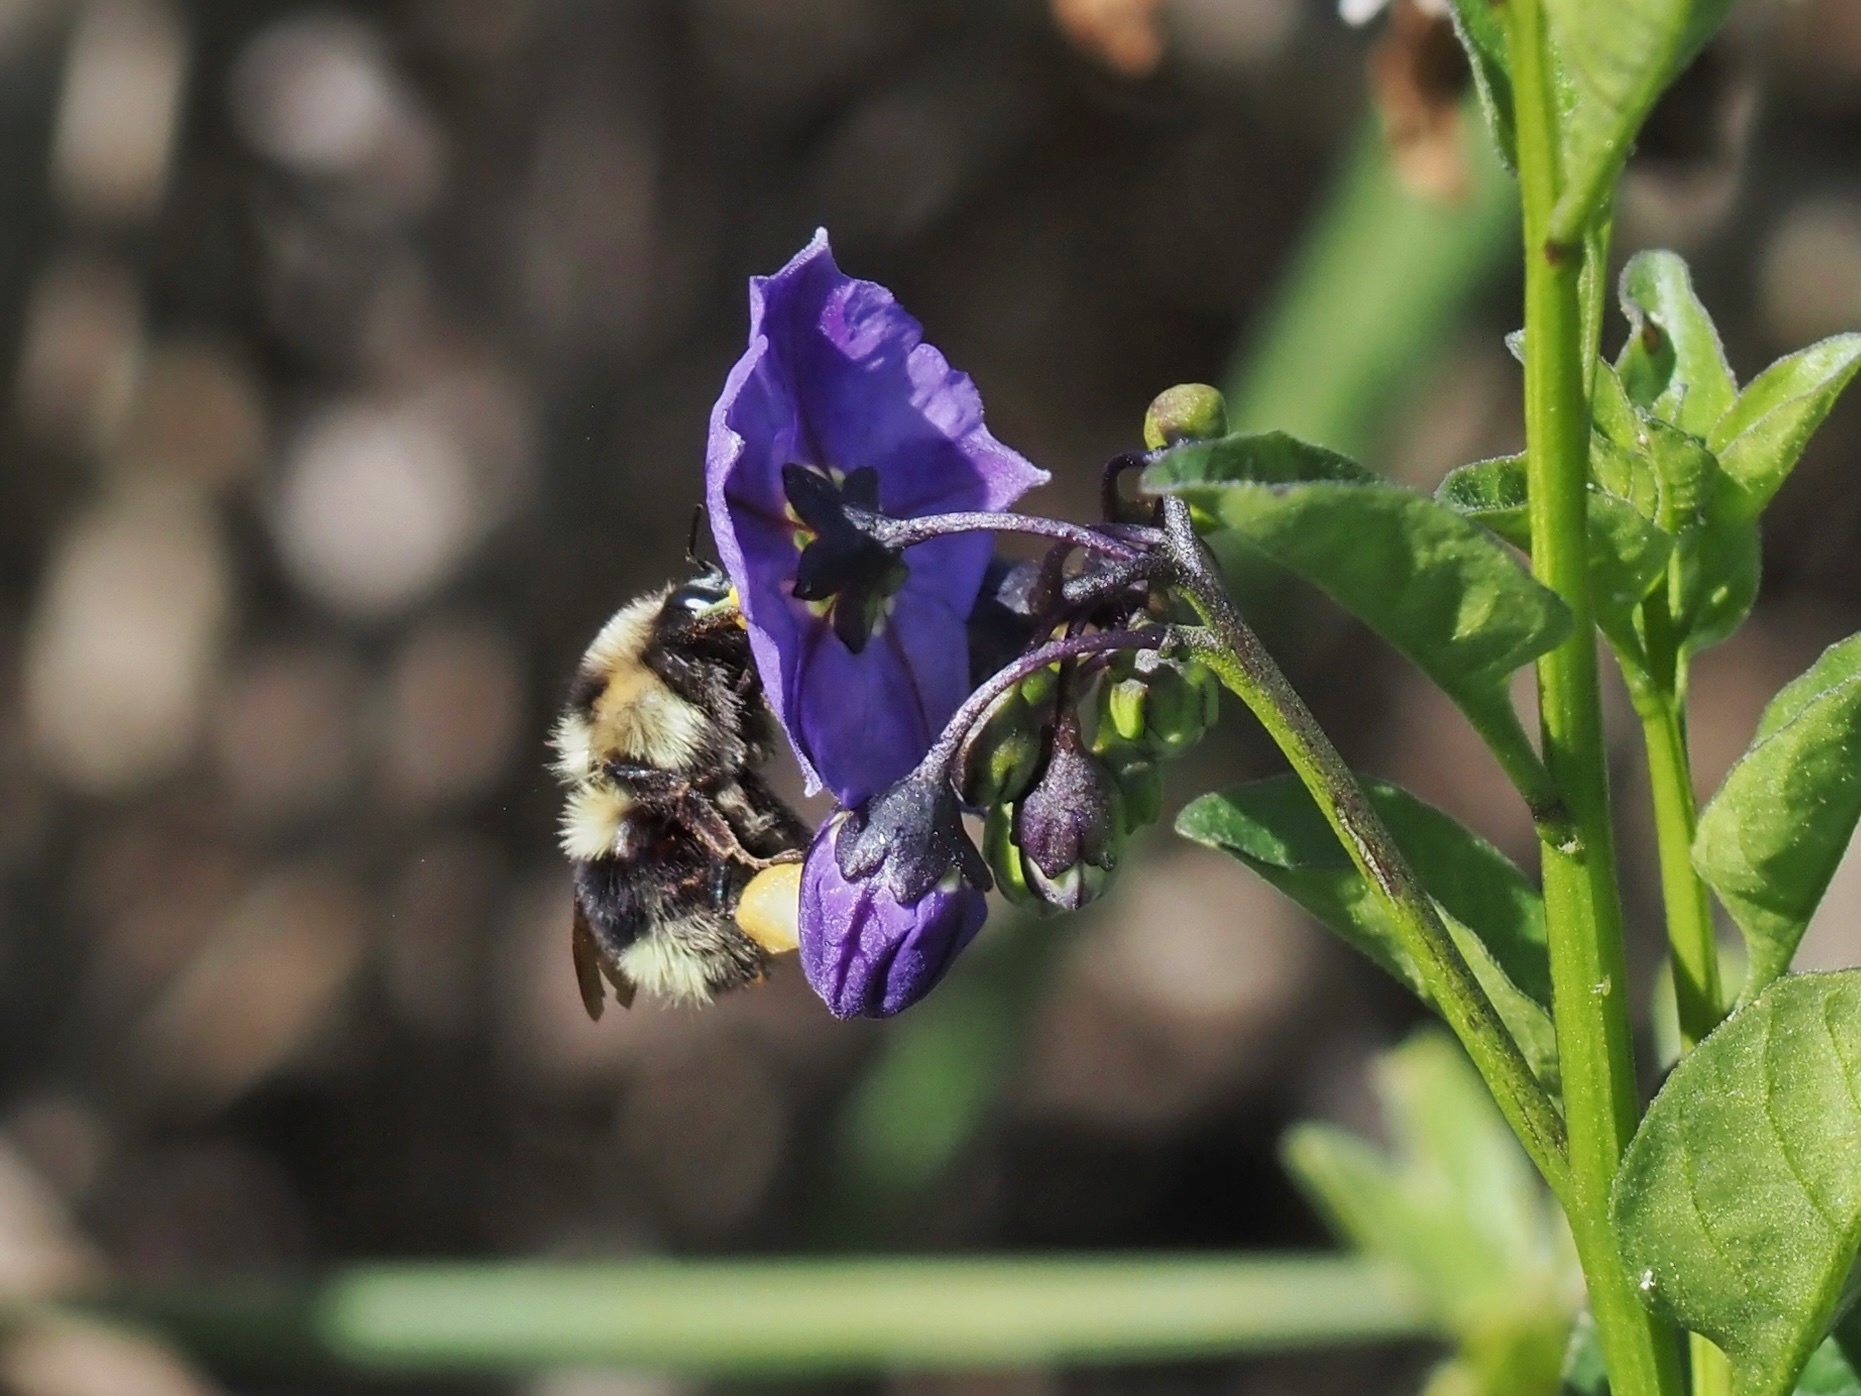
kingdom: Animalia
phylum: Arthropoda
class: Insecta
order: Hymenoptera
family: Apidae
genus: Bombus
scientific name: Bombus melanopygus
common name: Black tail bumble bee
